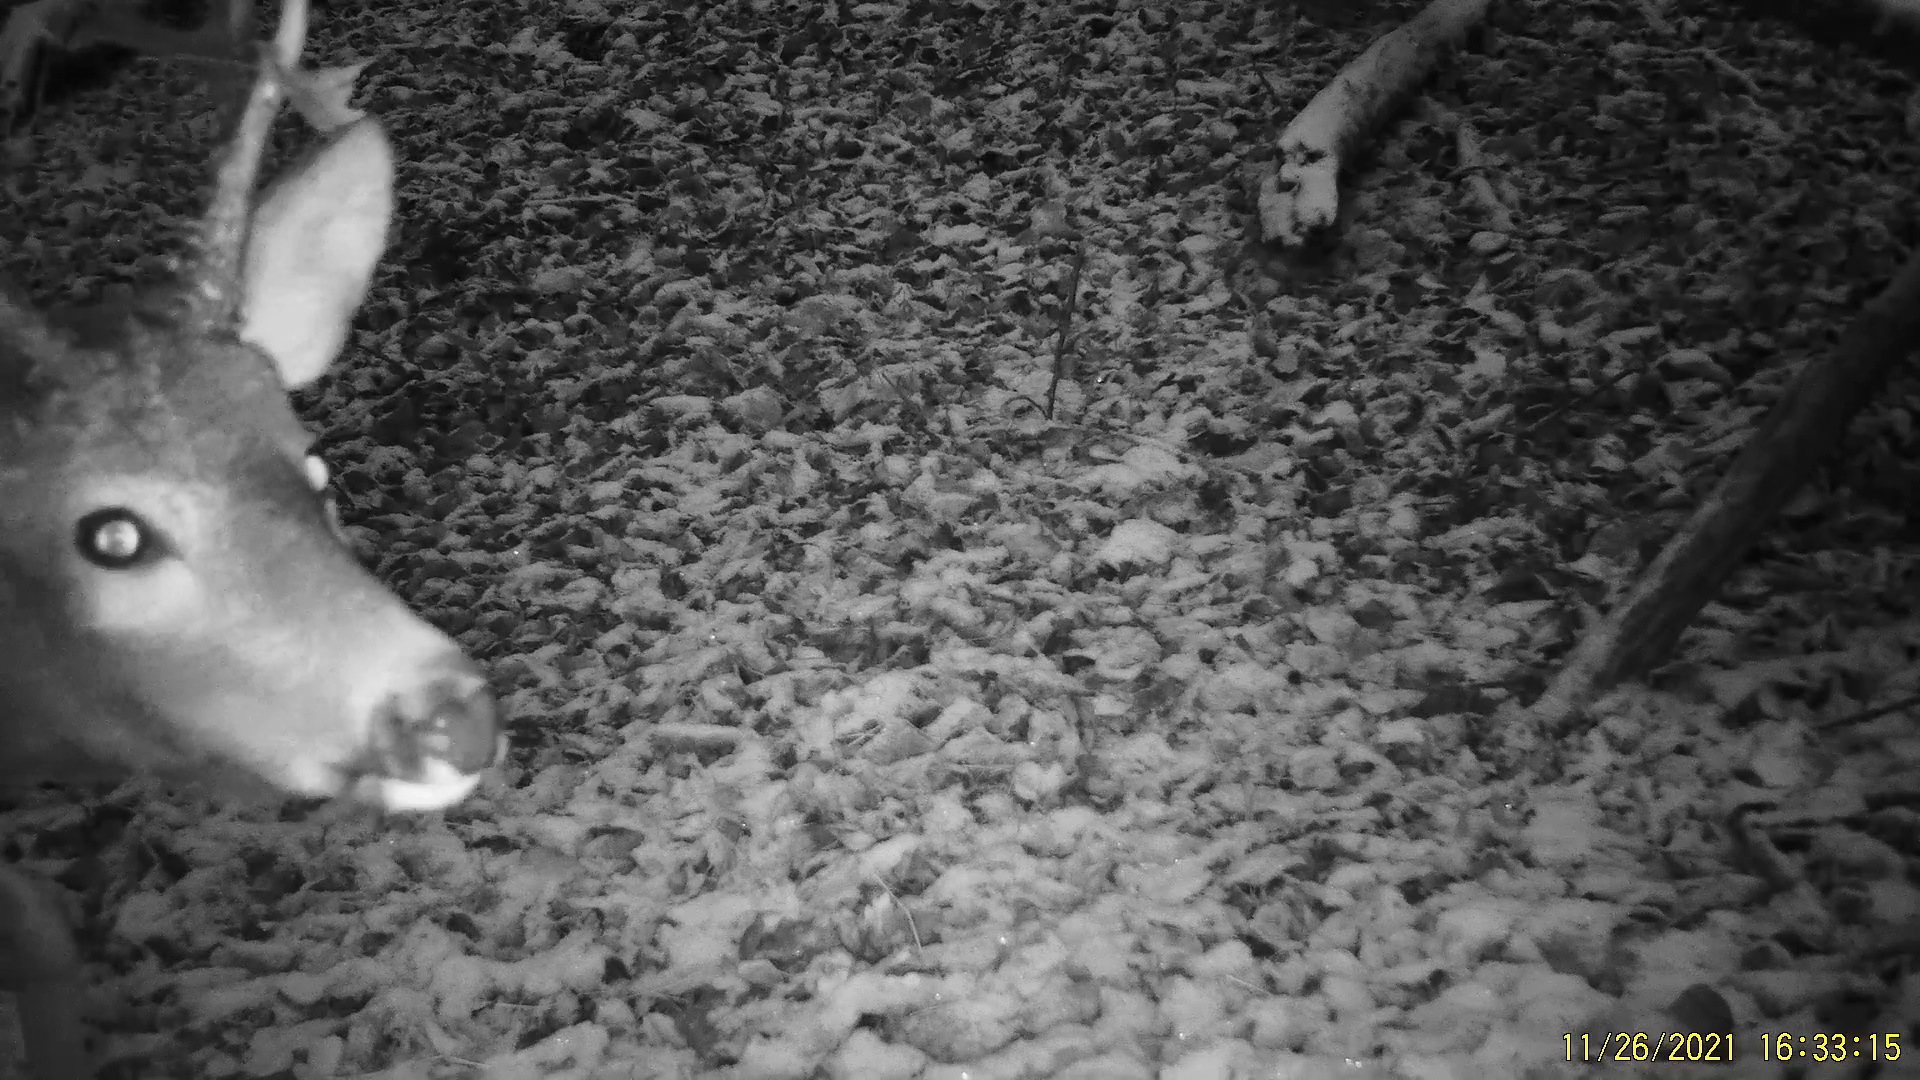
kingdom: Animalia
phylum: Chordata
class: Mammalia
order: Artiodactyla
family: Cervidae
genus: Capreolus
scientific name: Capreolus pygargus
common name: Siberian roe
